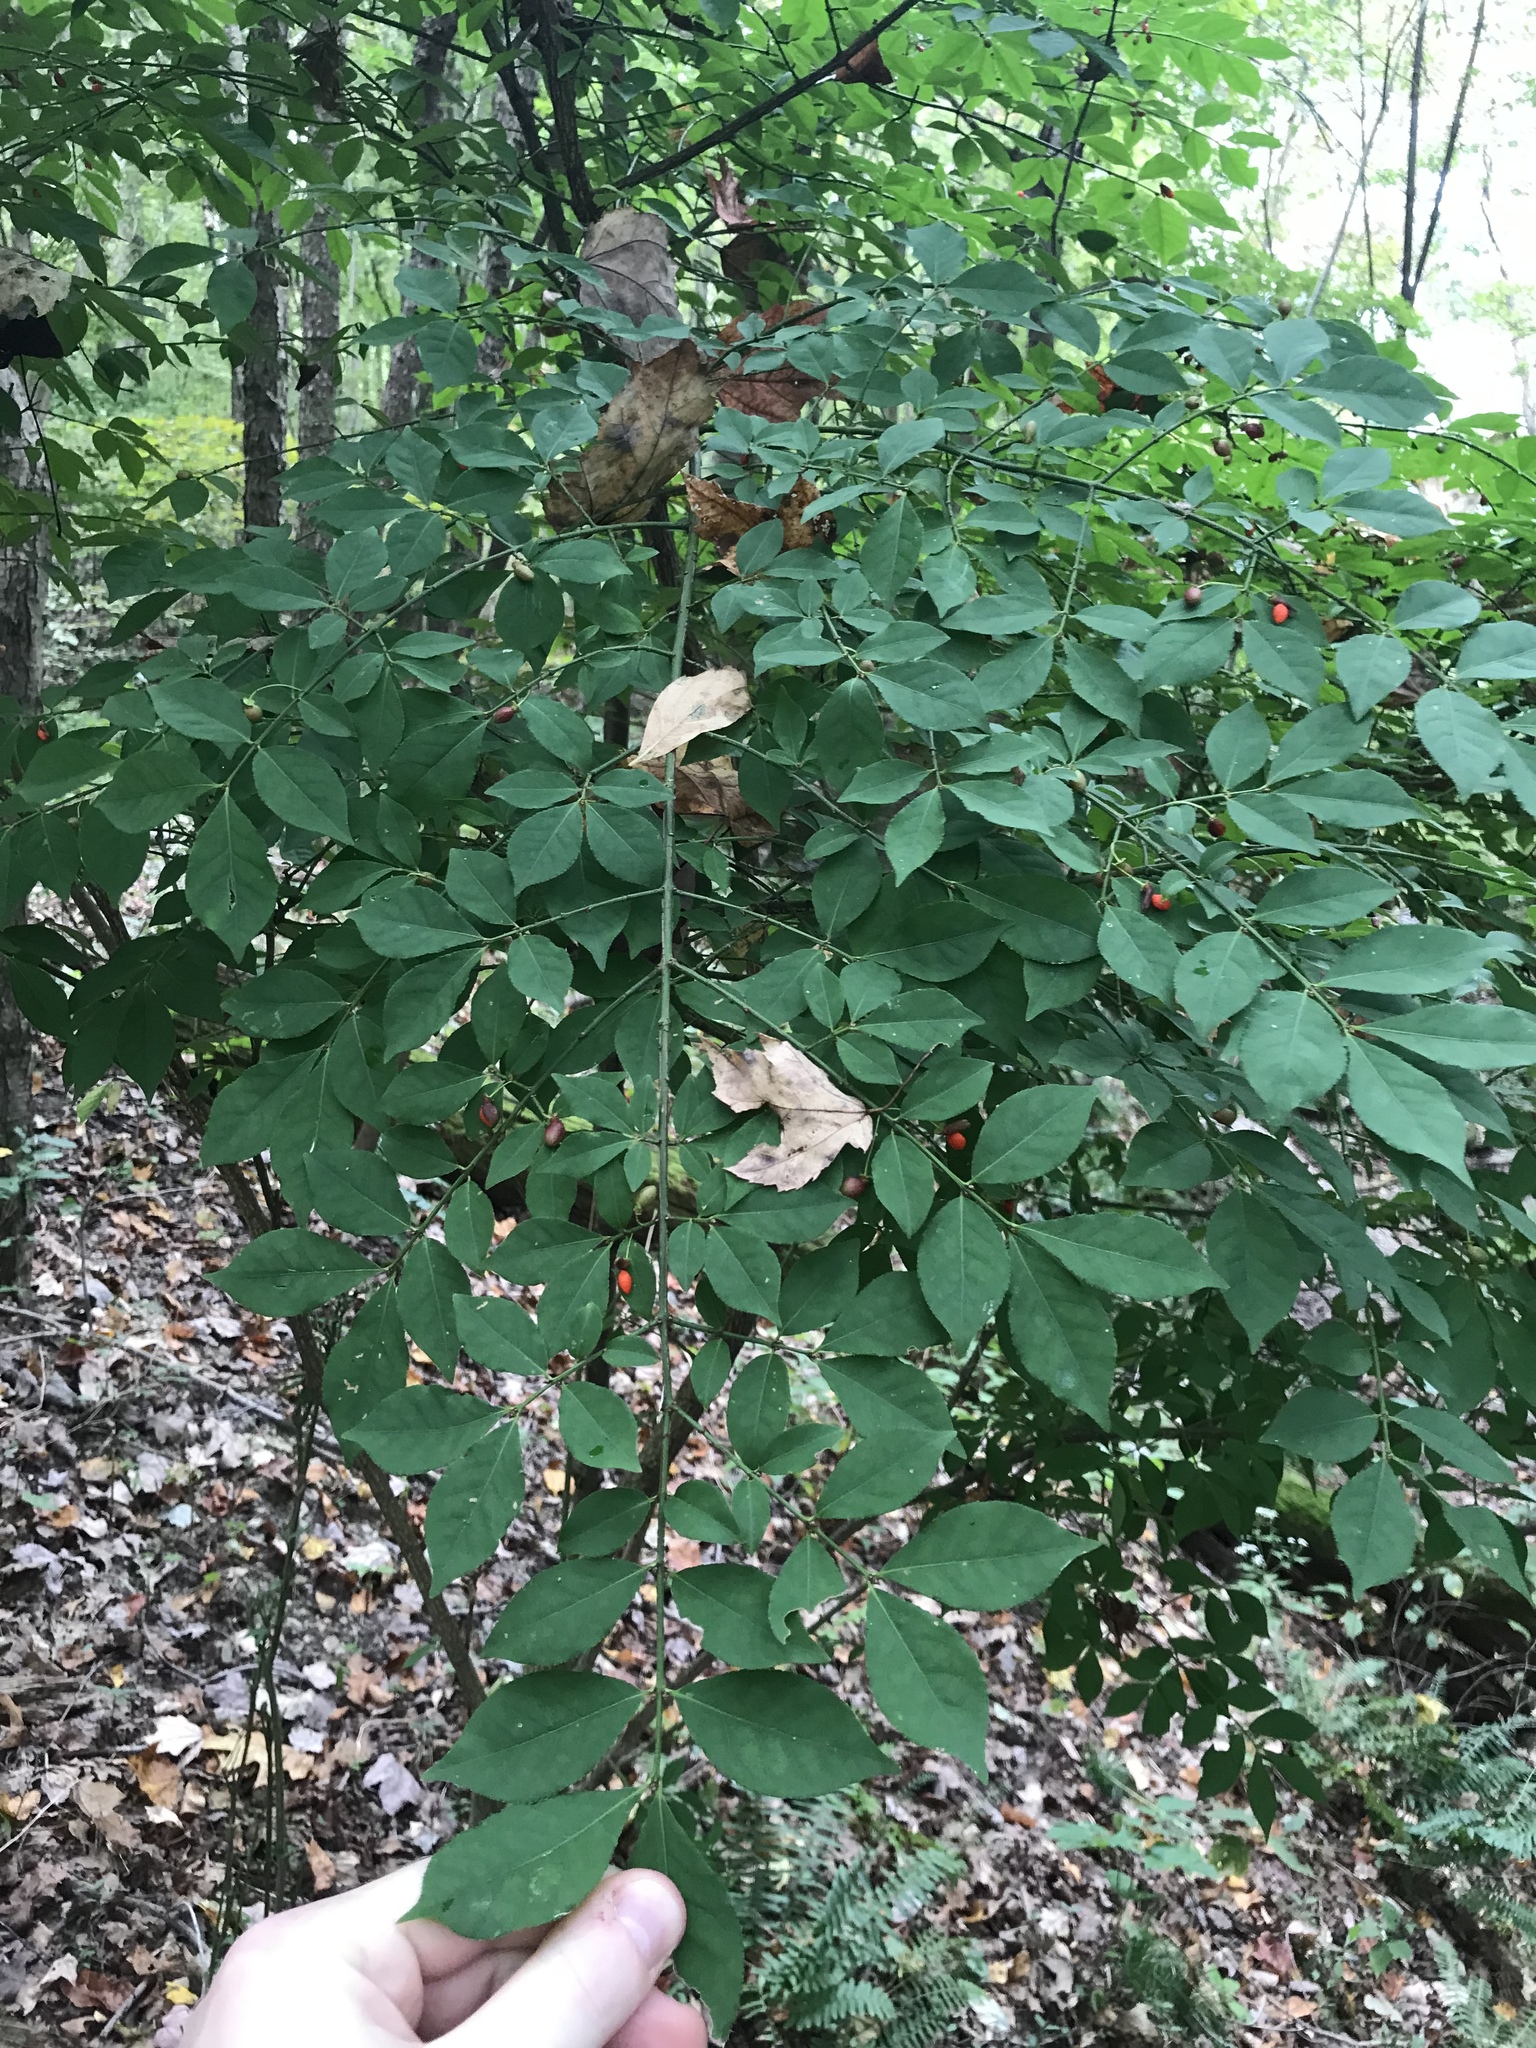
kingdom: Plantae
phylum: Tracheophyta
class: Magnoliopsida
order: Celastrales
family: Celastraceae
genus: Euonymus
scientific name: Euonymus alatus
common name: Winged euonymus
